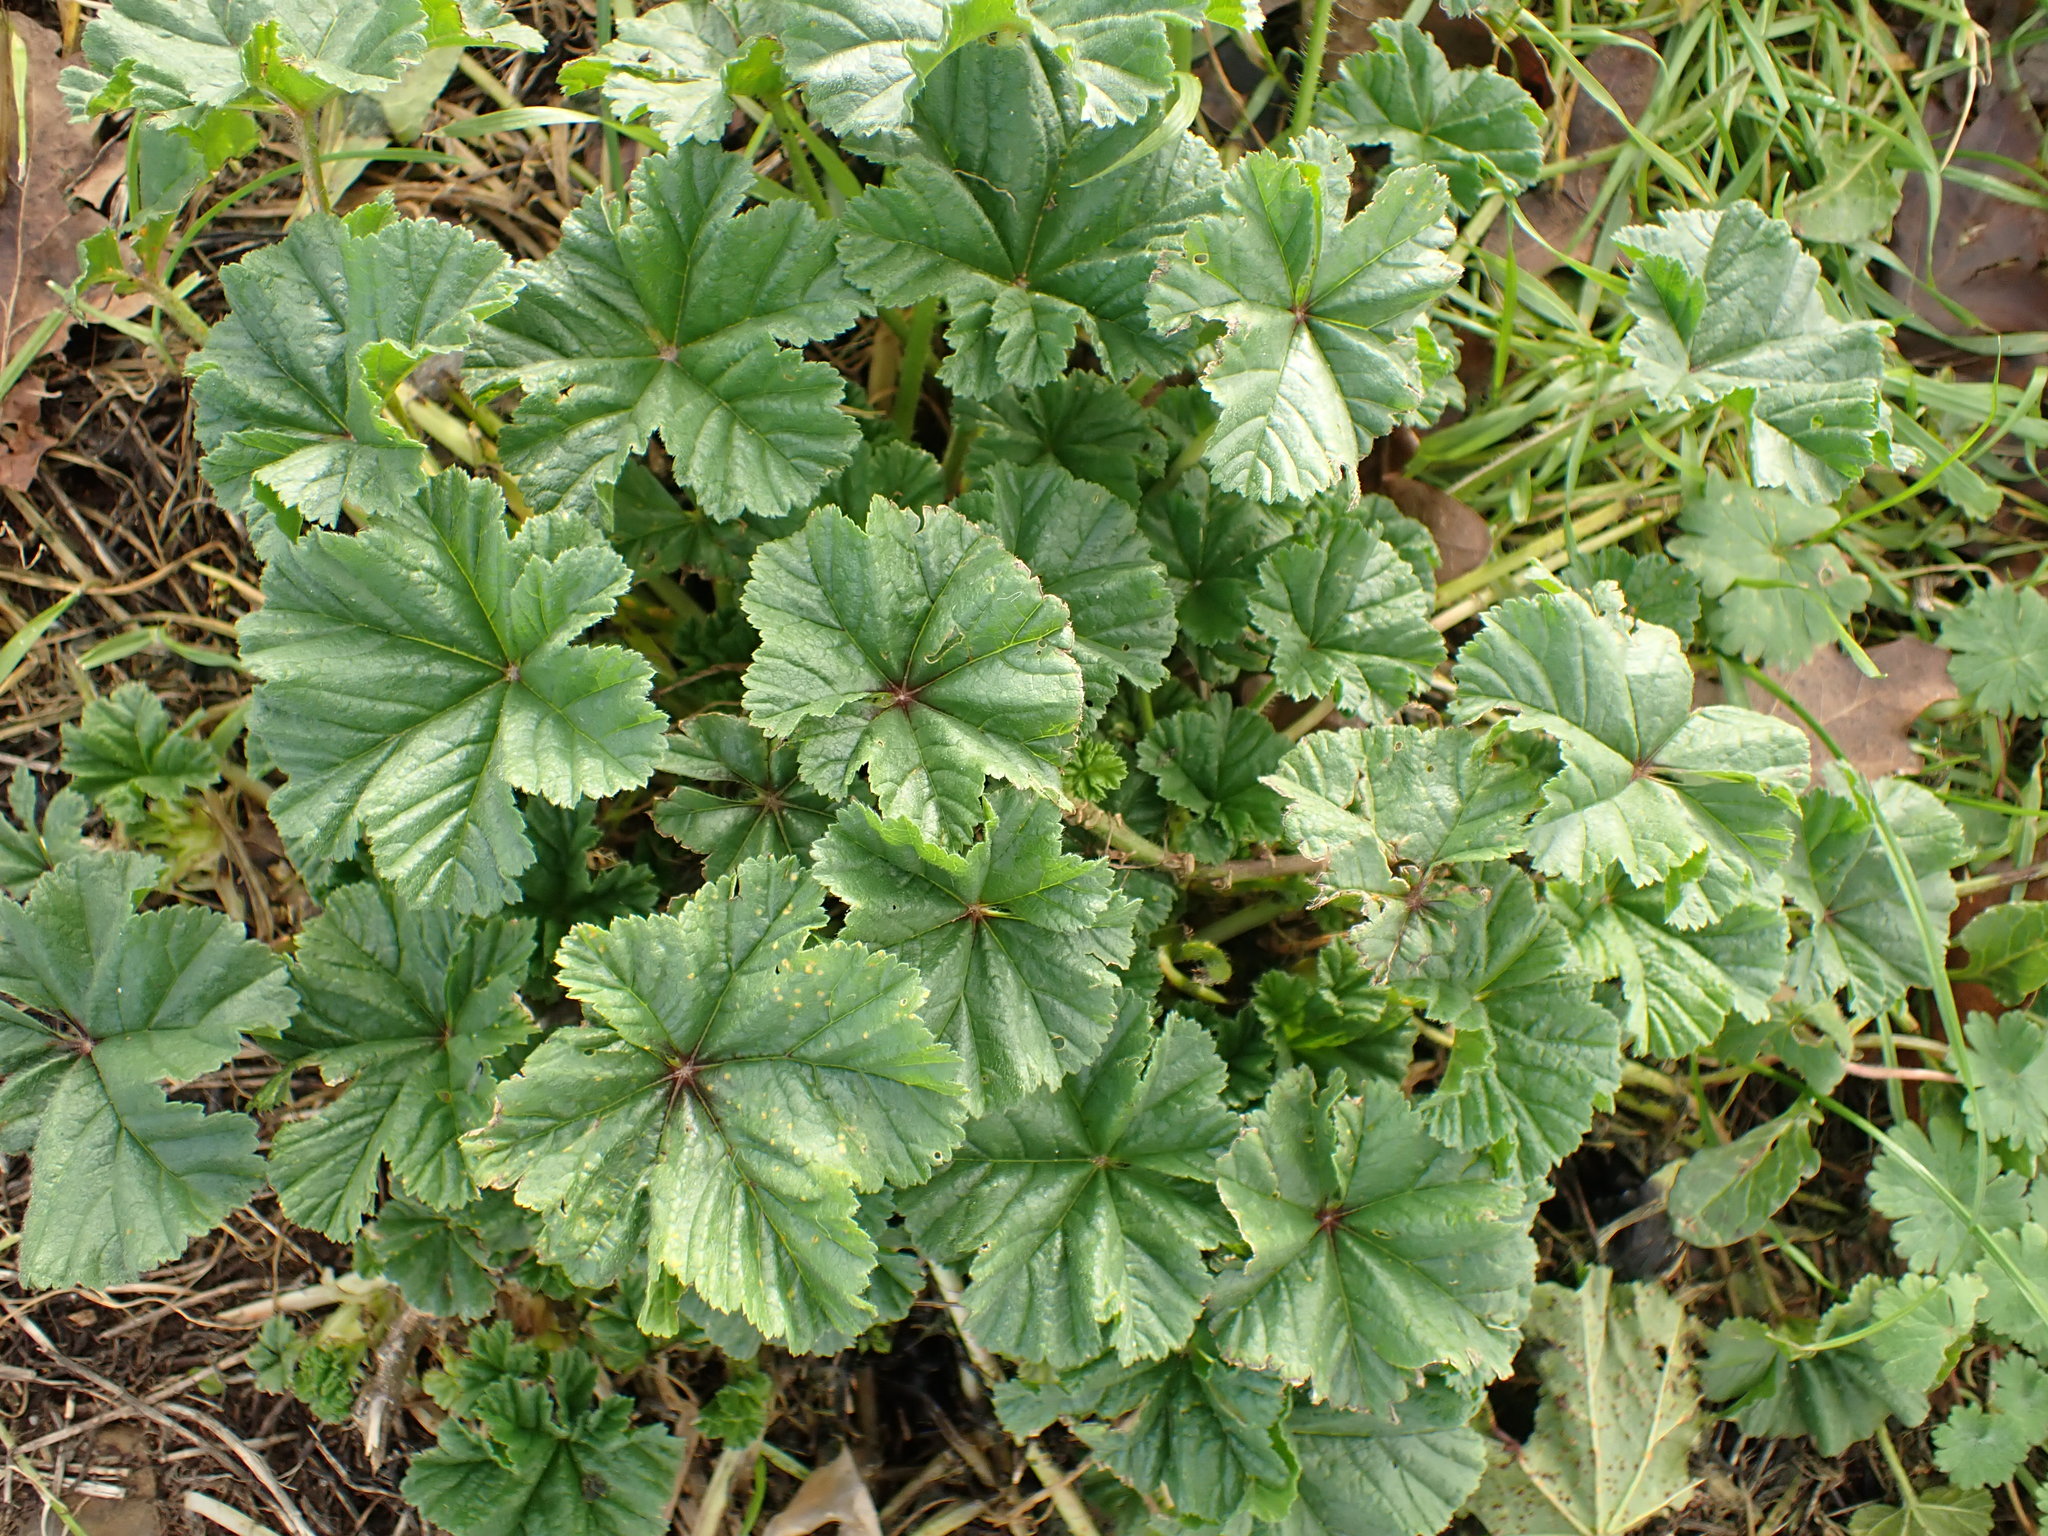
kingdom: Plantae
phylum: Tracheophyta
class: Magnoliopsida
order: Malvales
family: Malvaceae
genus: Malva
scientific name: Malva sylvestris
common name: Common mallow
